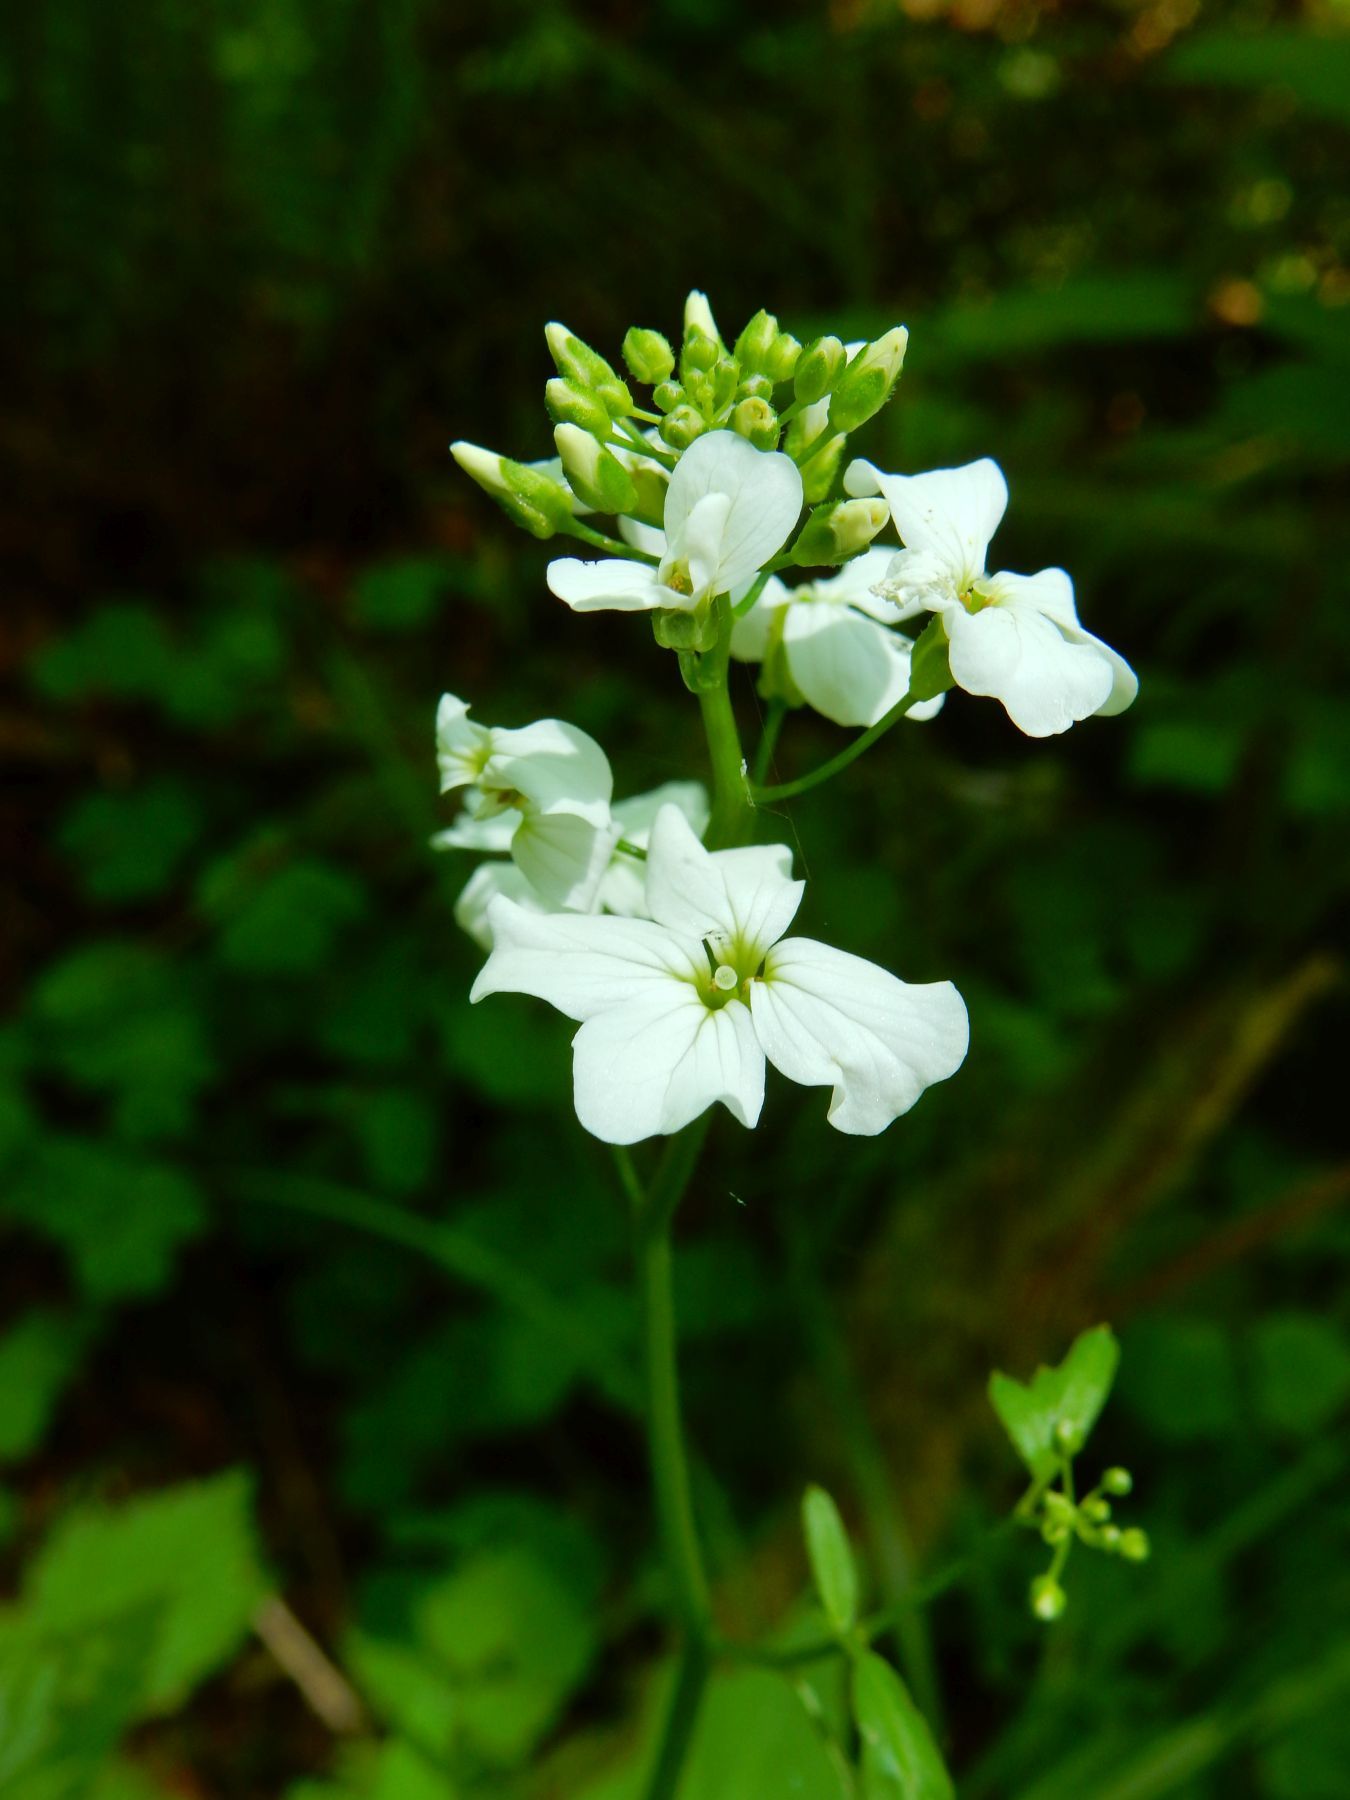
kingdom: Plantae
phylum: Tracheophyta
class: Magnoliopsida
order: Brassicales
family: Brassicaceae
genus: Cardamine
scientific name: Cardamine angulata
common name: Angled bittercress
